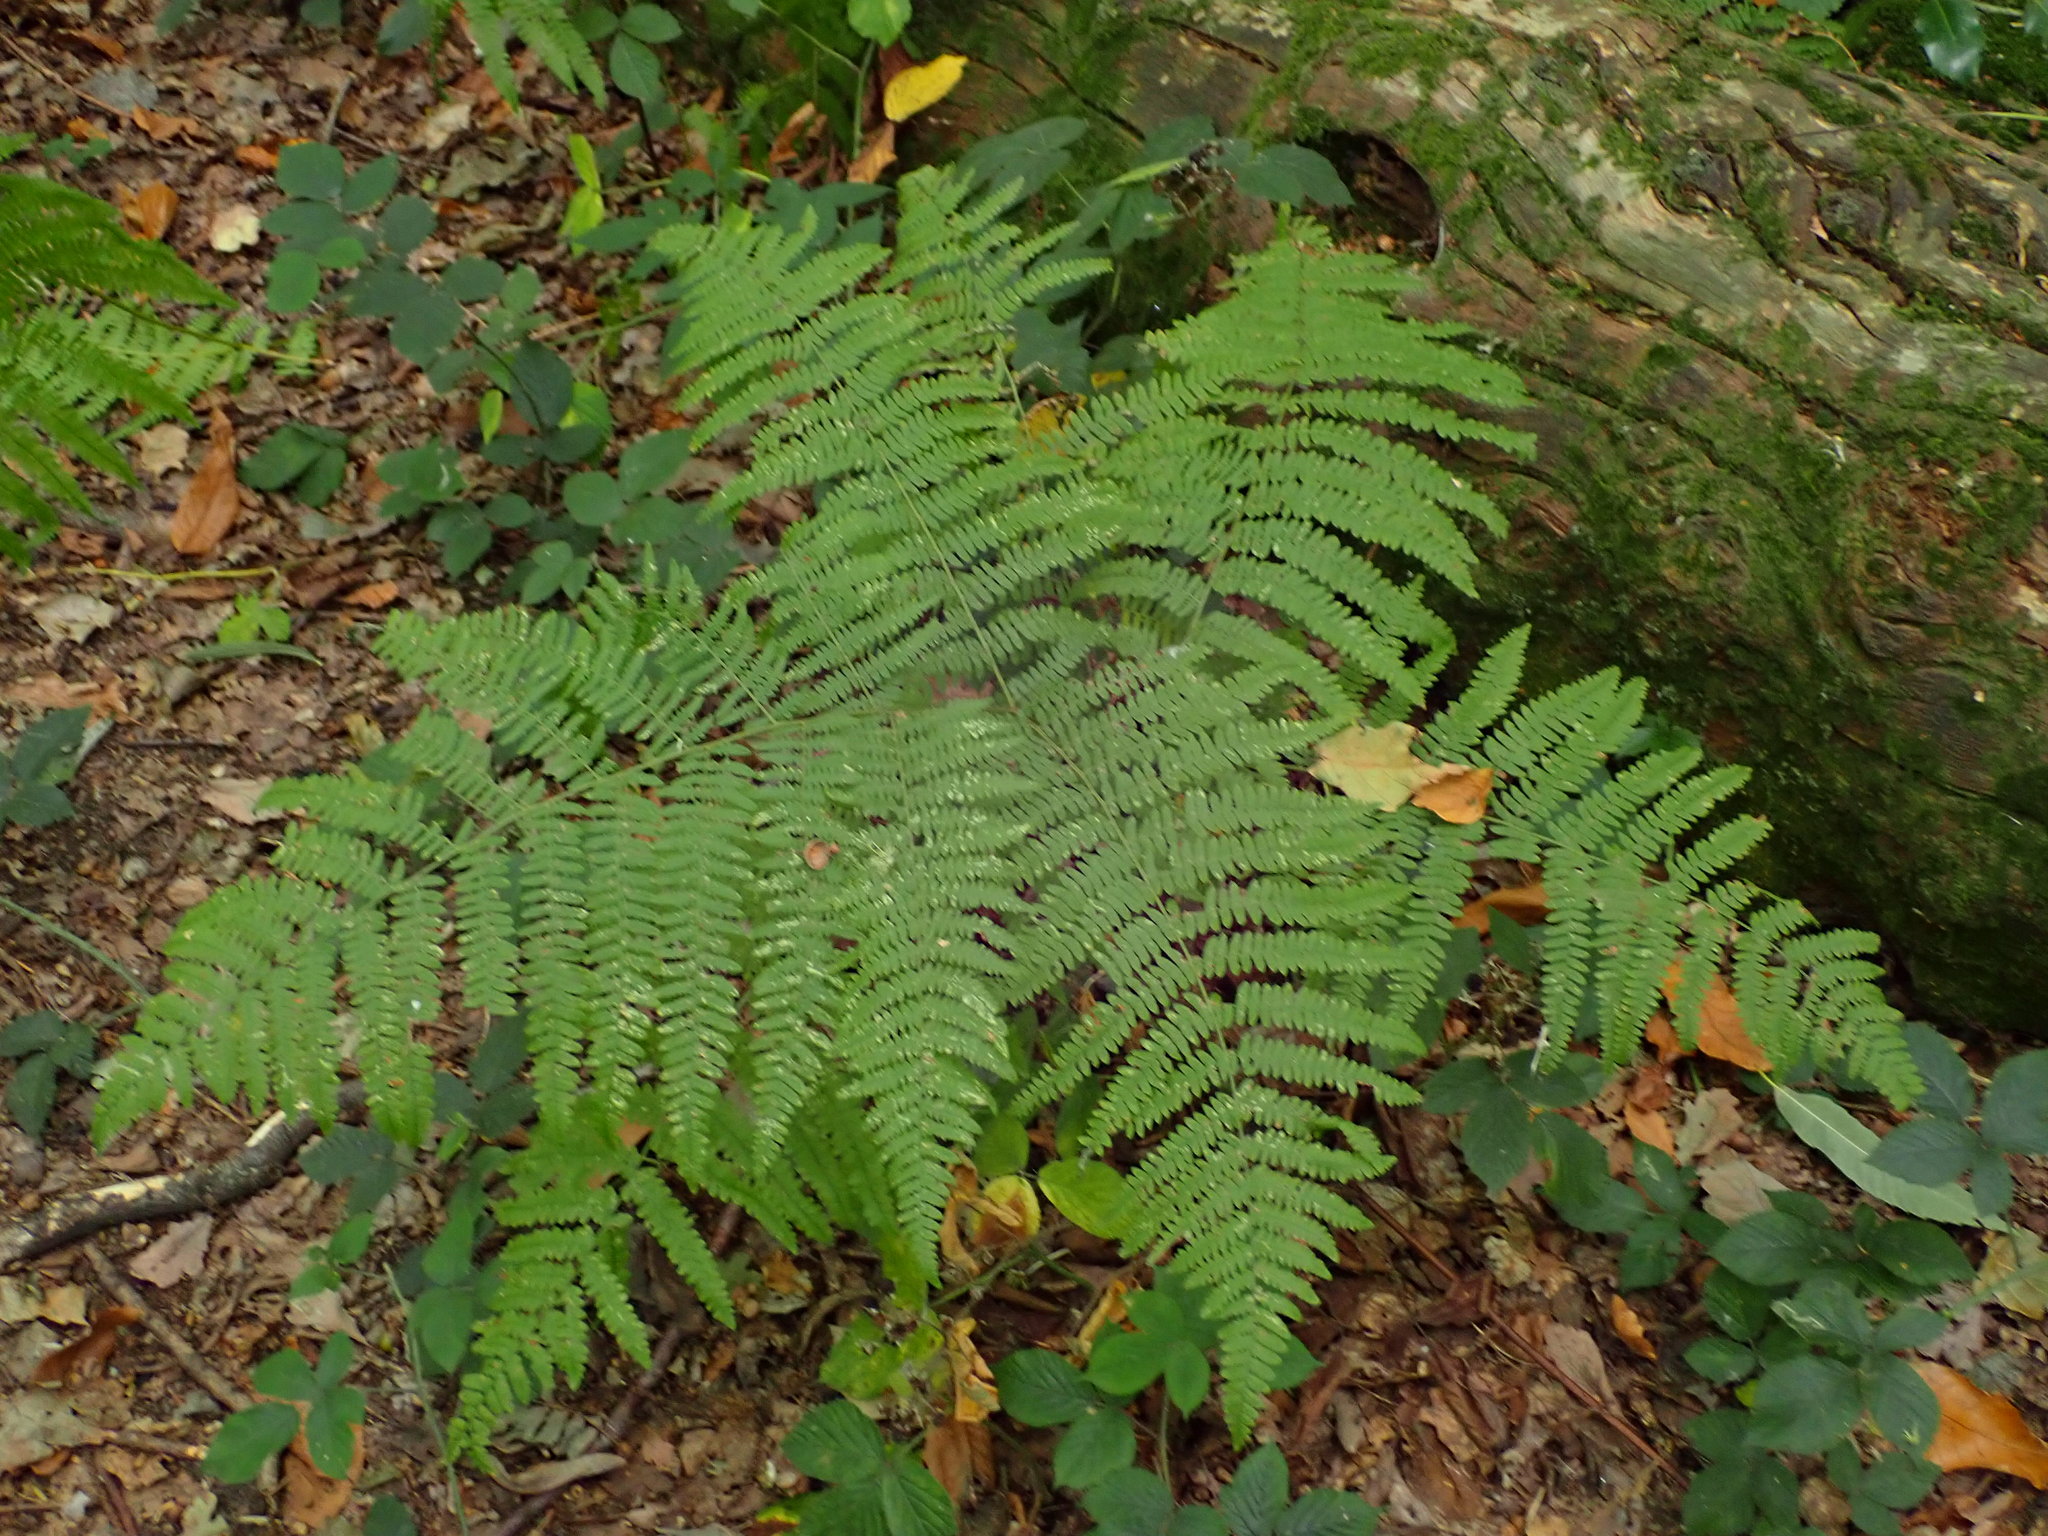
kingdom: Plantae
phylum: Tracheophyta
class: Polypodiopsida
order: Polypodiales
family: Dennstaedtiaceae
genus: Pteridium
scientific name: Pteridium aquilinum
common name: Bracken
